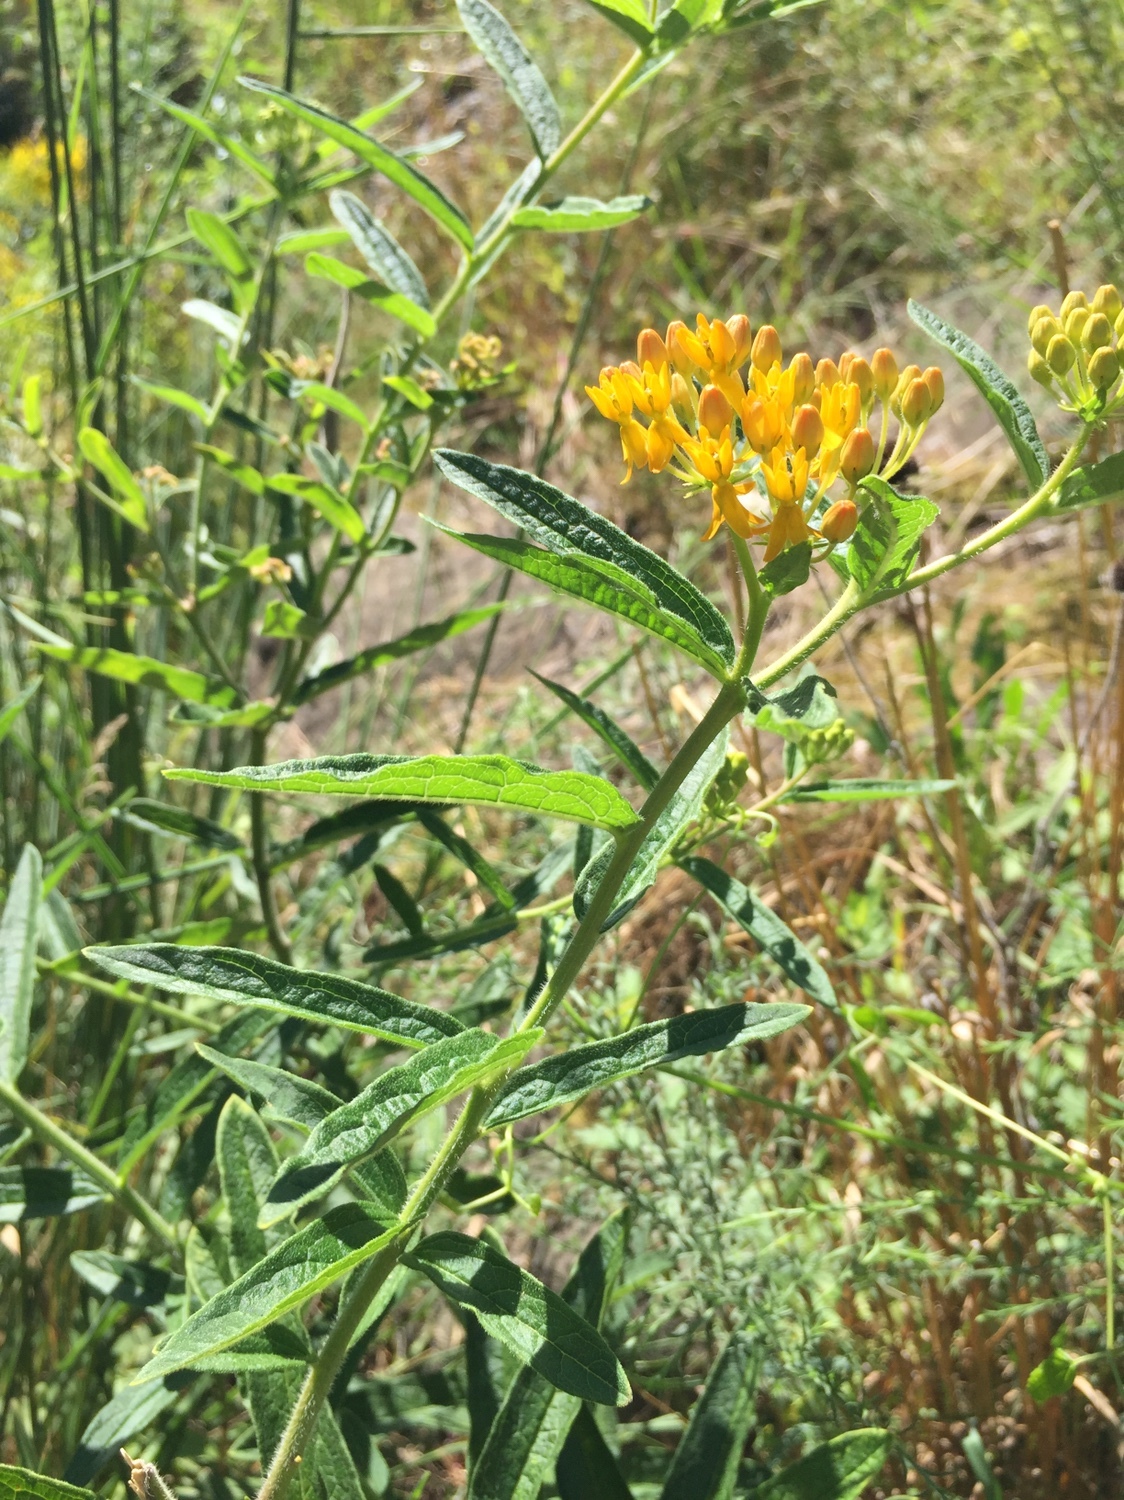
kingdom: Plantae
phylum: Tracheophyta
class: Magnoliopsida
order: Gentianales
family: Apocynaceae
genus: Asclepias
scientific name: Asclepias tuberosa
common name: Butterfly milkweed
